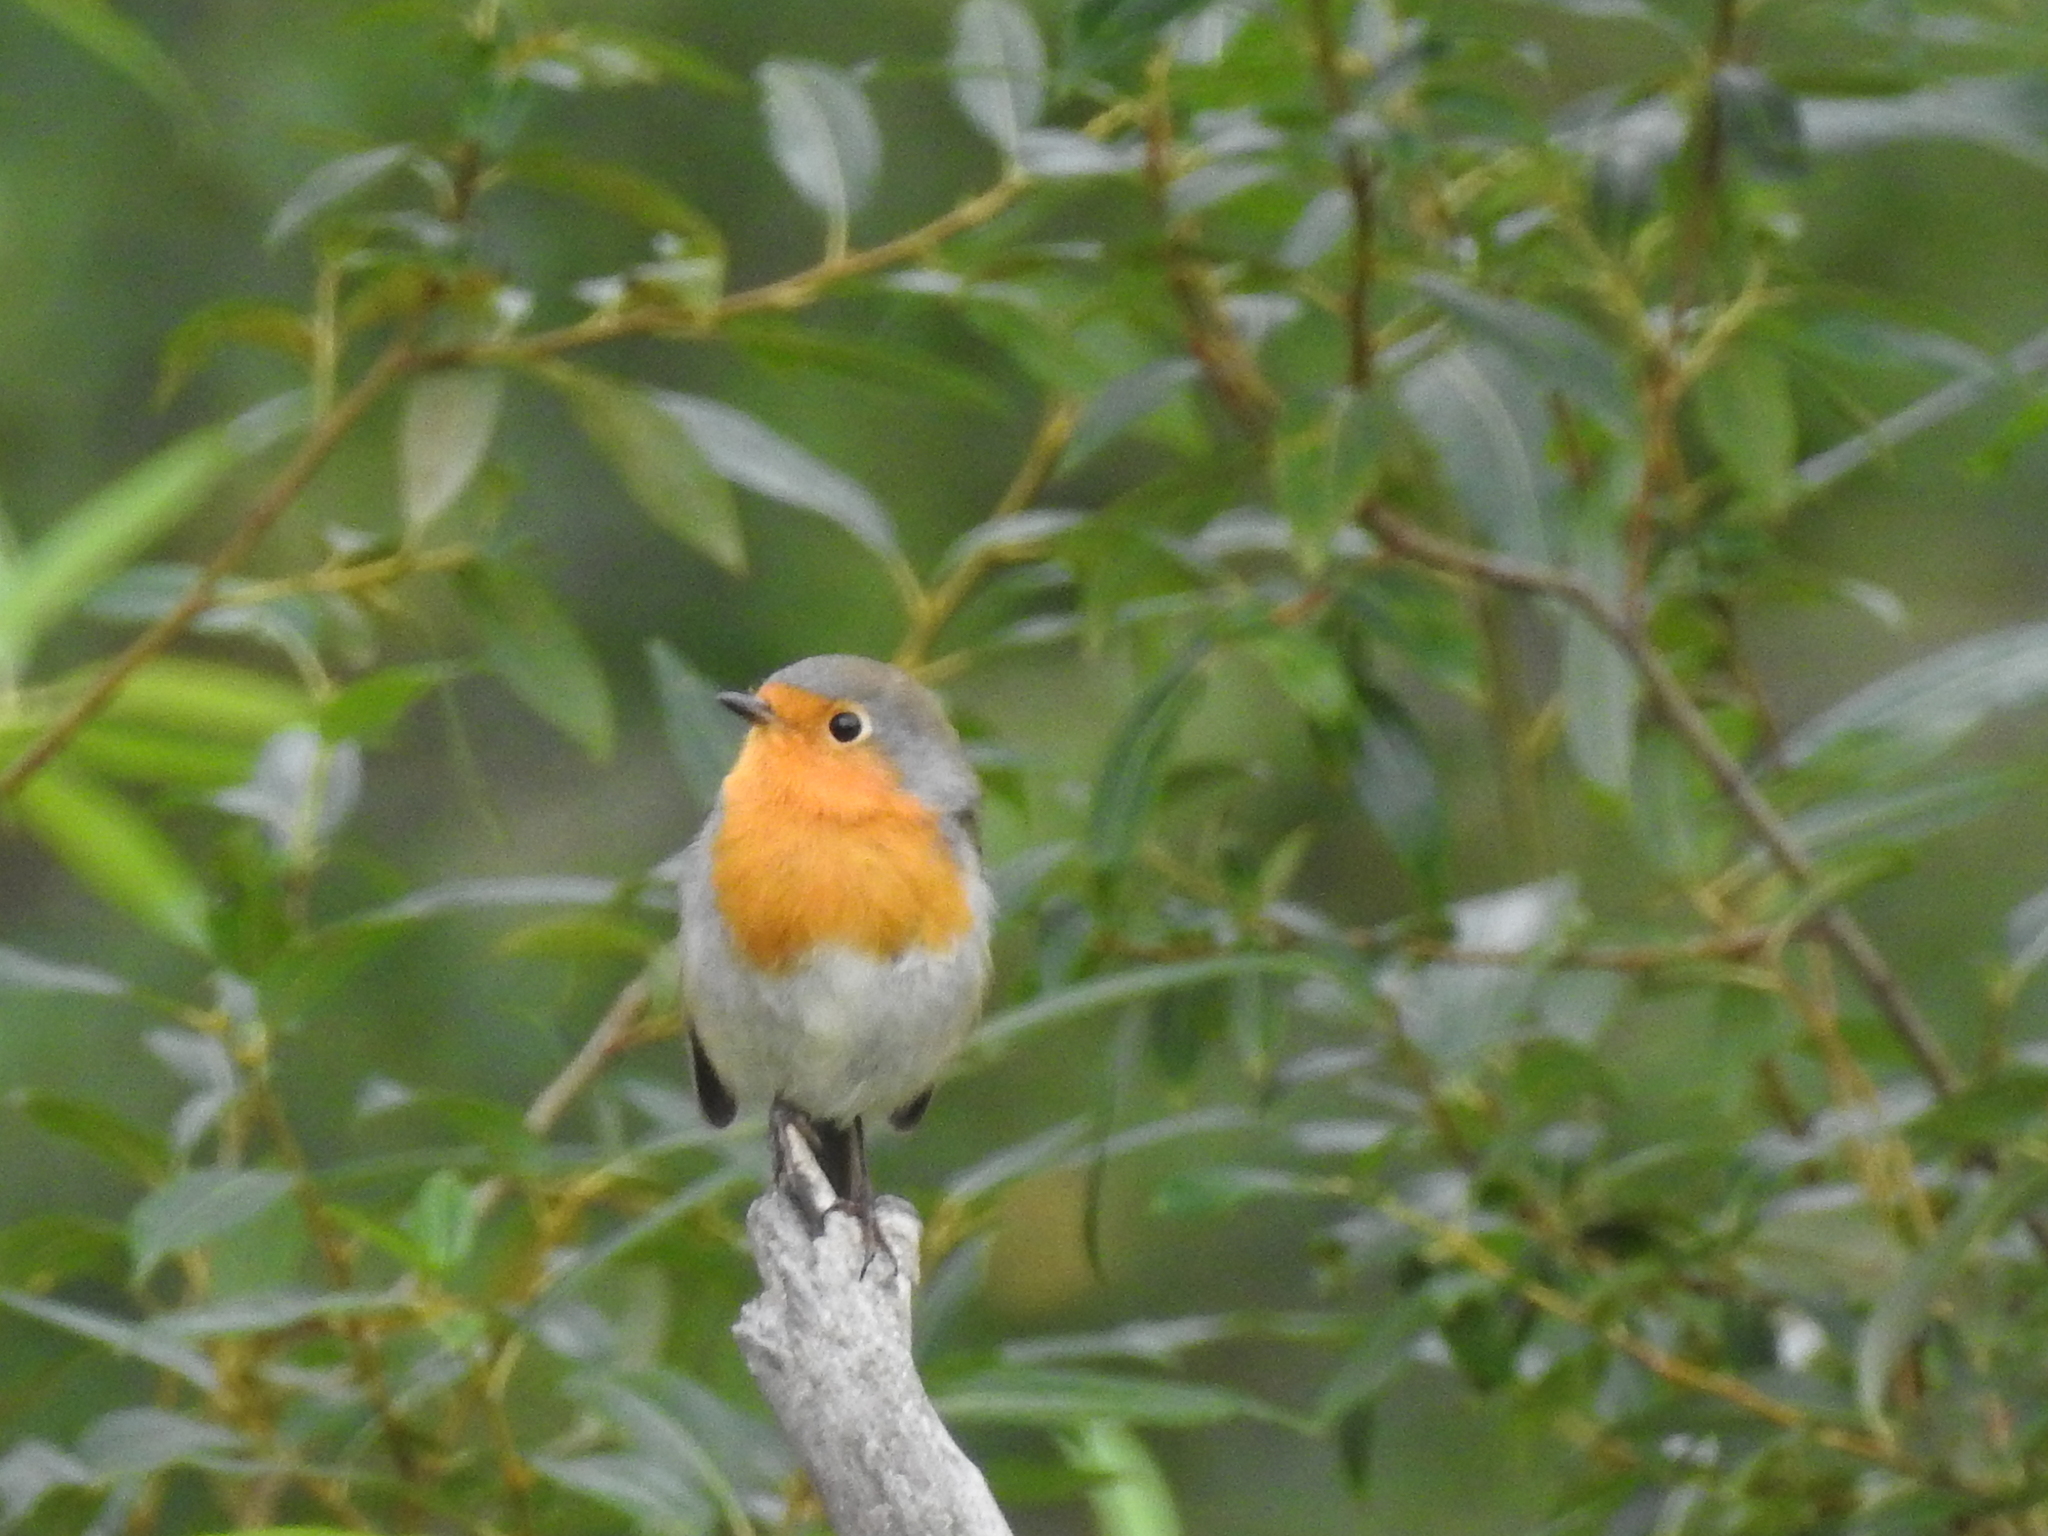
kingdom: Animalia
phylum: Chordata
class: Aves
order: Passeriformes
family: Muscicapidae
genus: Erithacus
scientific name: Erithacus rubecula
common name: European robin
